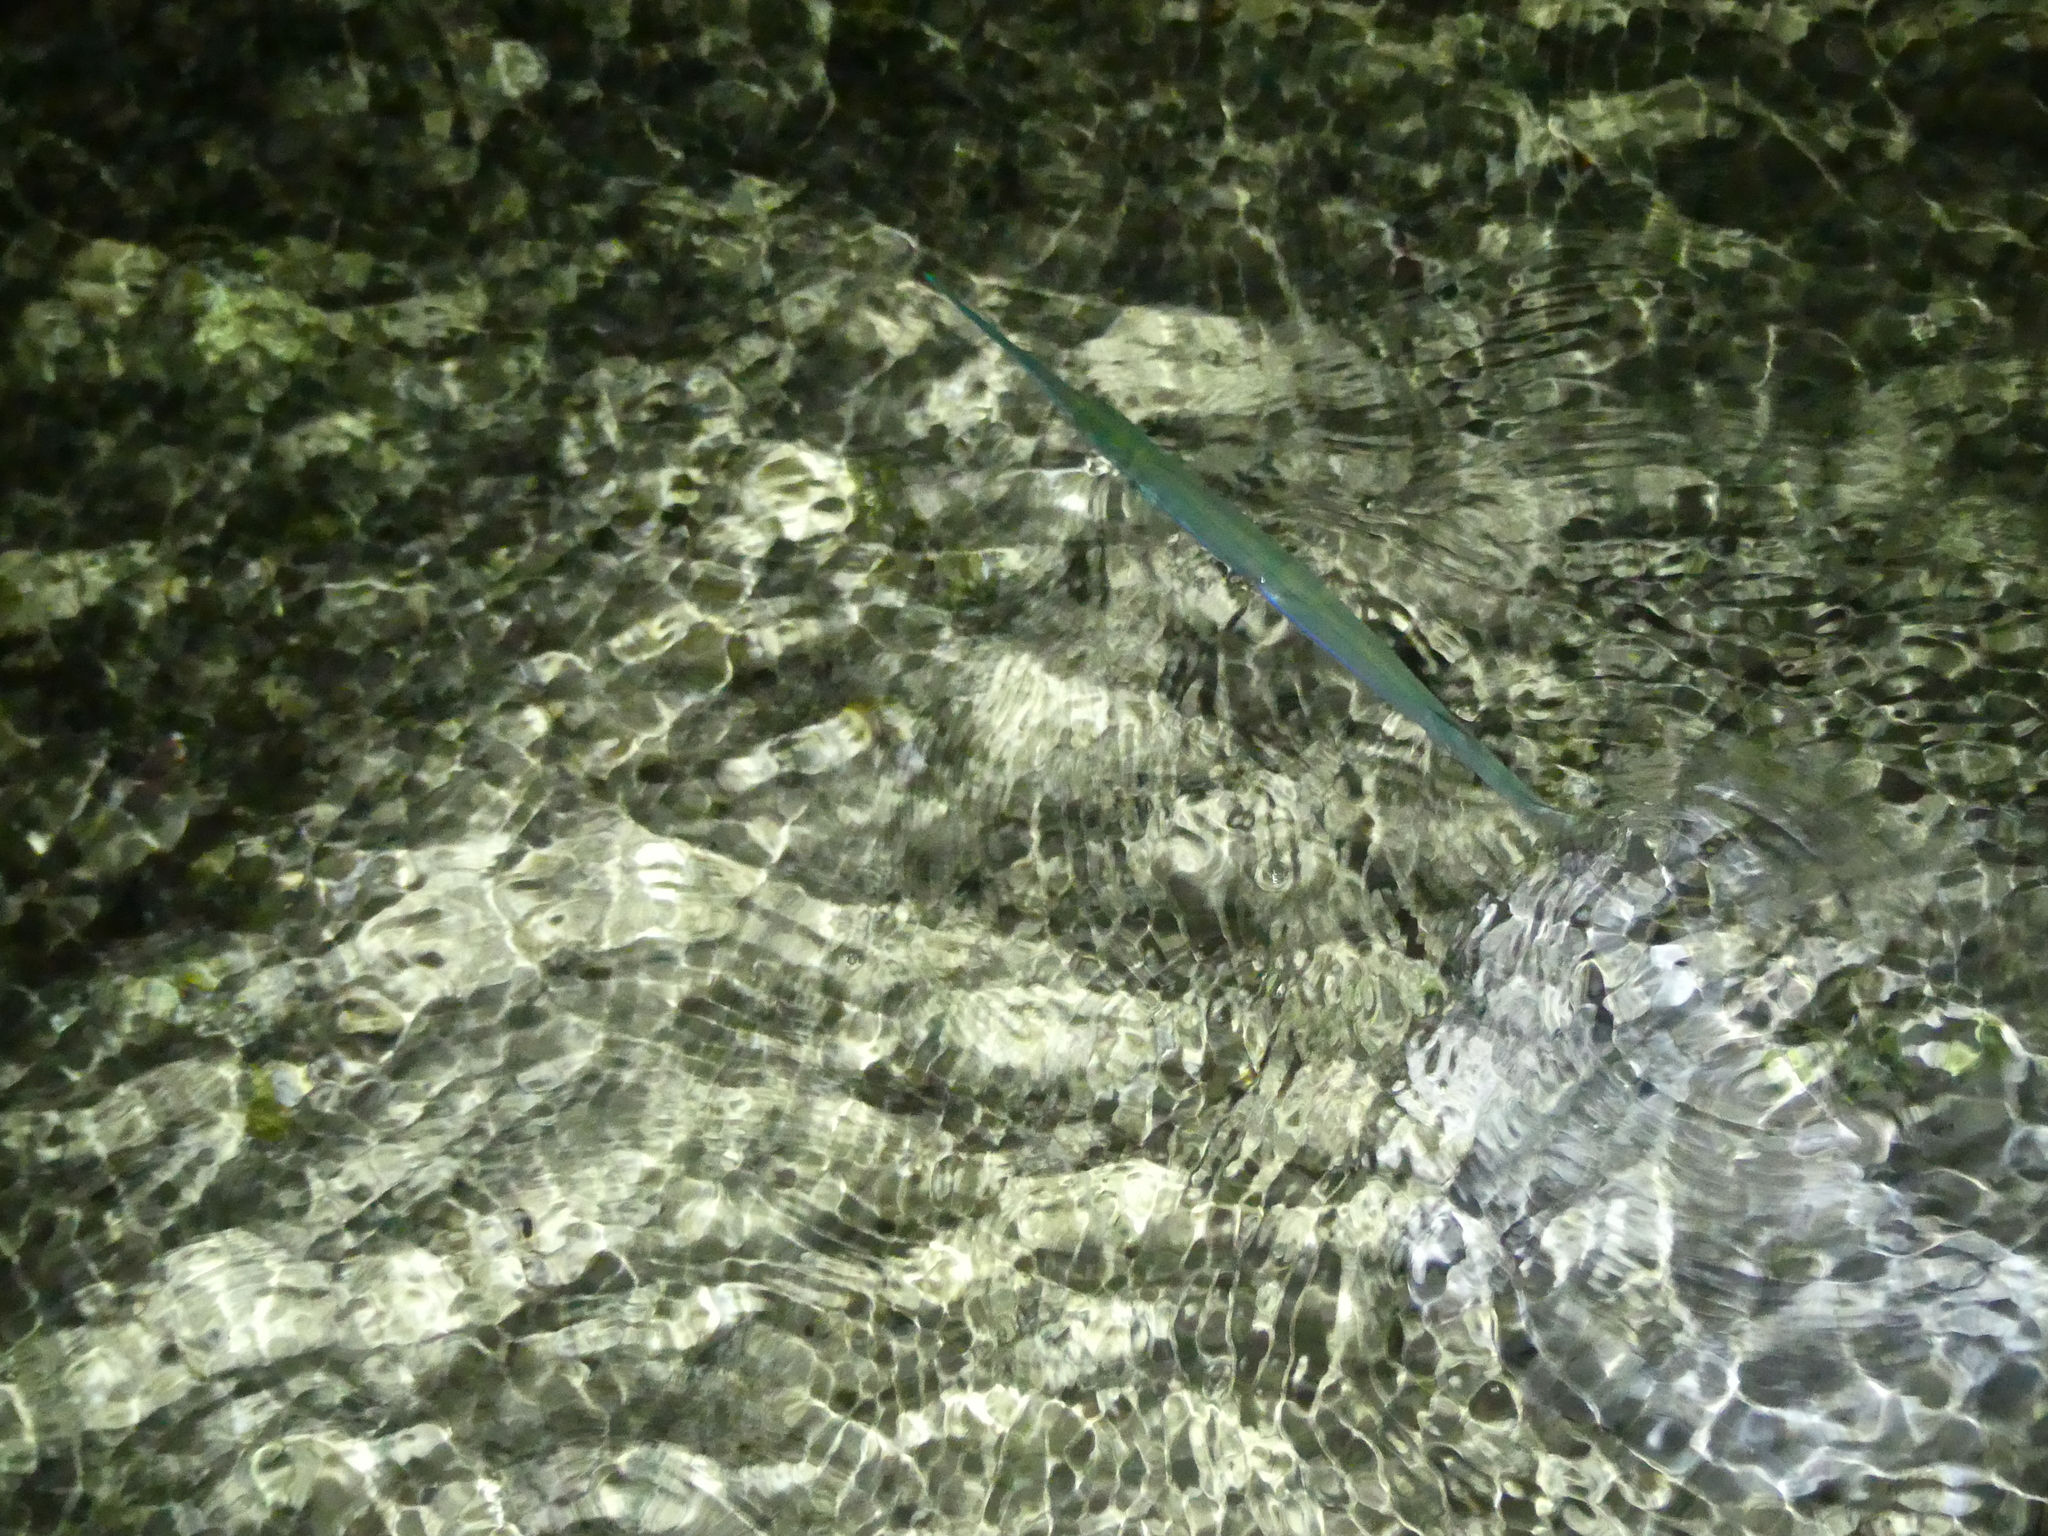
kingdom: Animalia
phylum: Chordata
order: Syngnathiformes
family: Fistulariidae
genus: Fistularia
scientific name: Fistularia commersonii
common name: Bluespotted cornetfish
